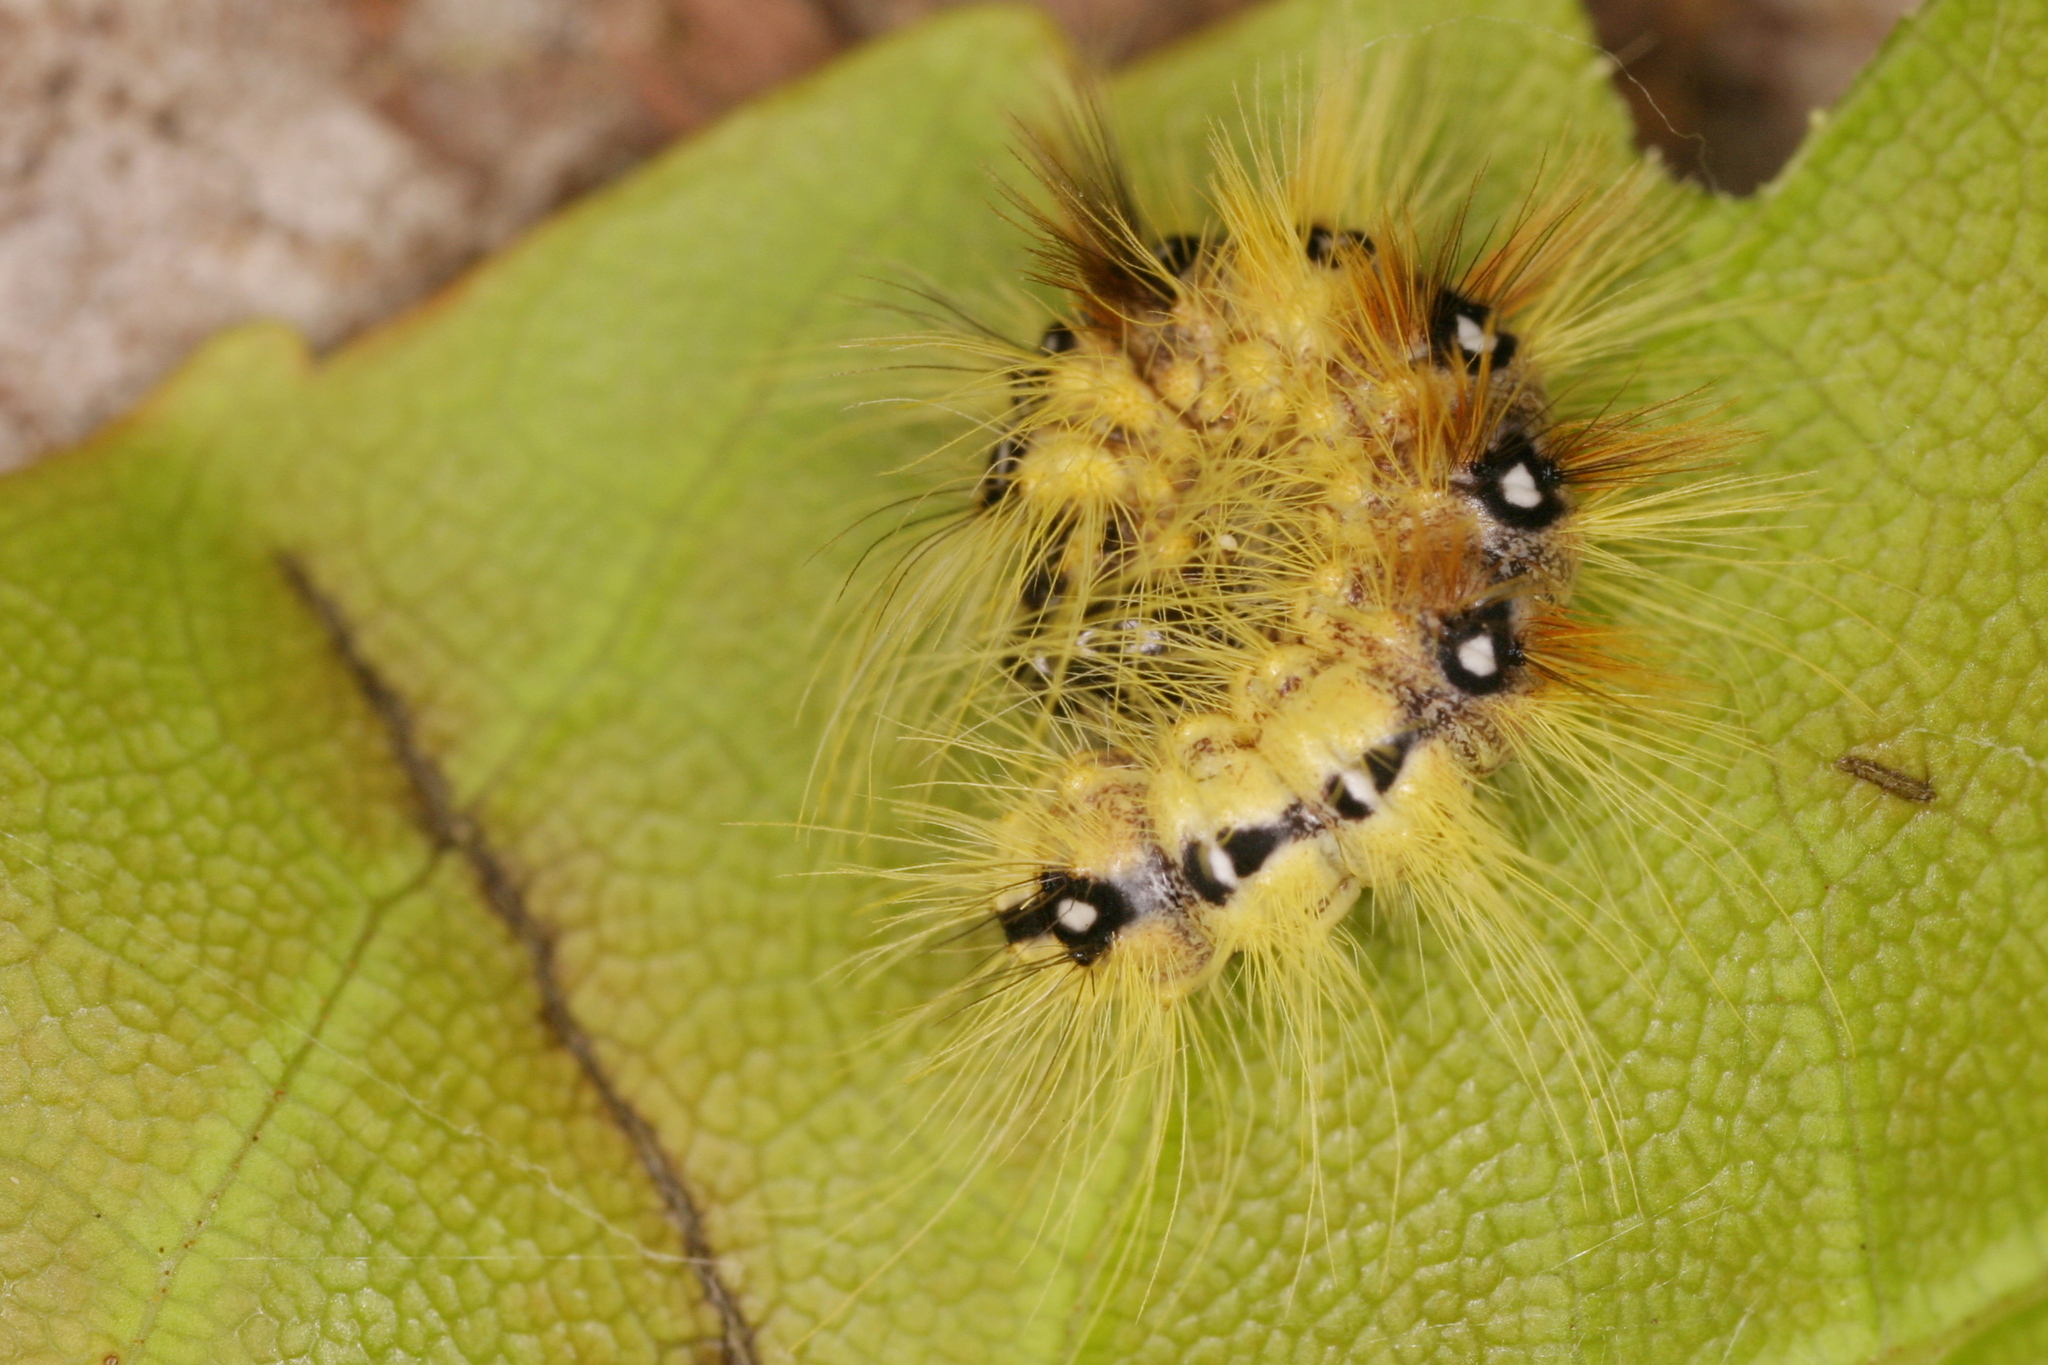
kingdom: Animalia
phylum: Arthropoda
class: Insecta
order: Lepidoptera
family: Noctuidae
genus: Acronicta
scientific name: Acronicta aceris
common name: Sycamore
